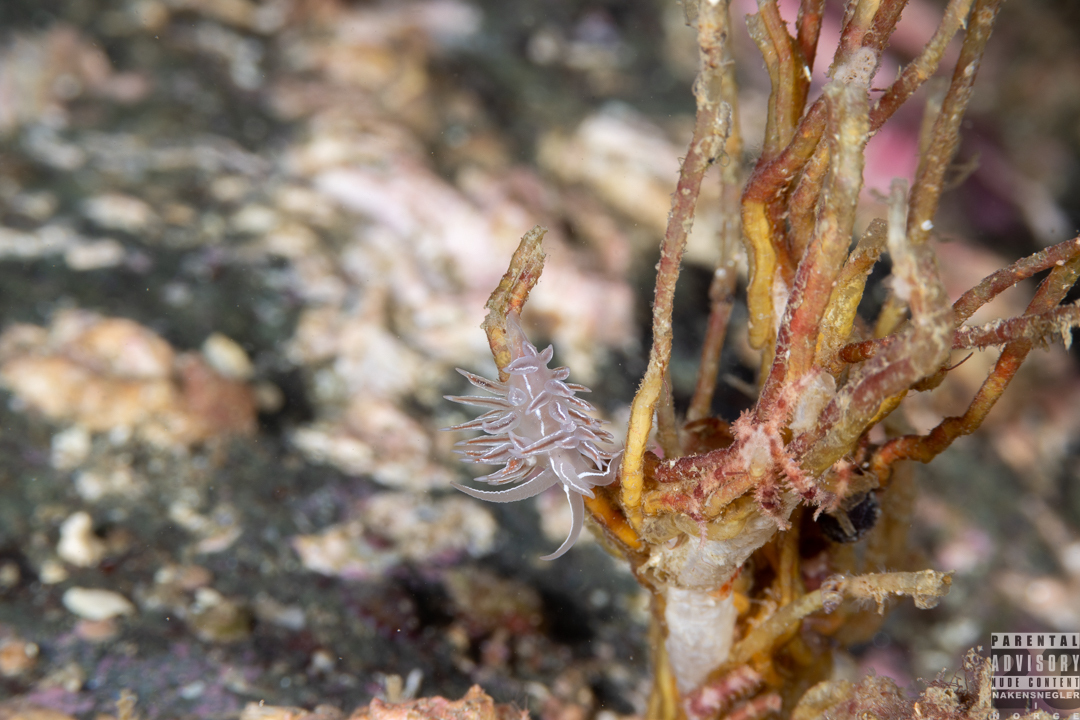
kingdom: Animalia
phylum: Mollusca
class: Gastropoda
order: Nudibranchia
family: Coryphellidae
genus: Coryphella
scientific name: Coryphella chriskaugei
